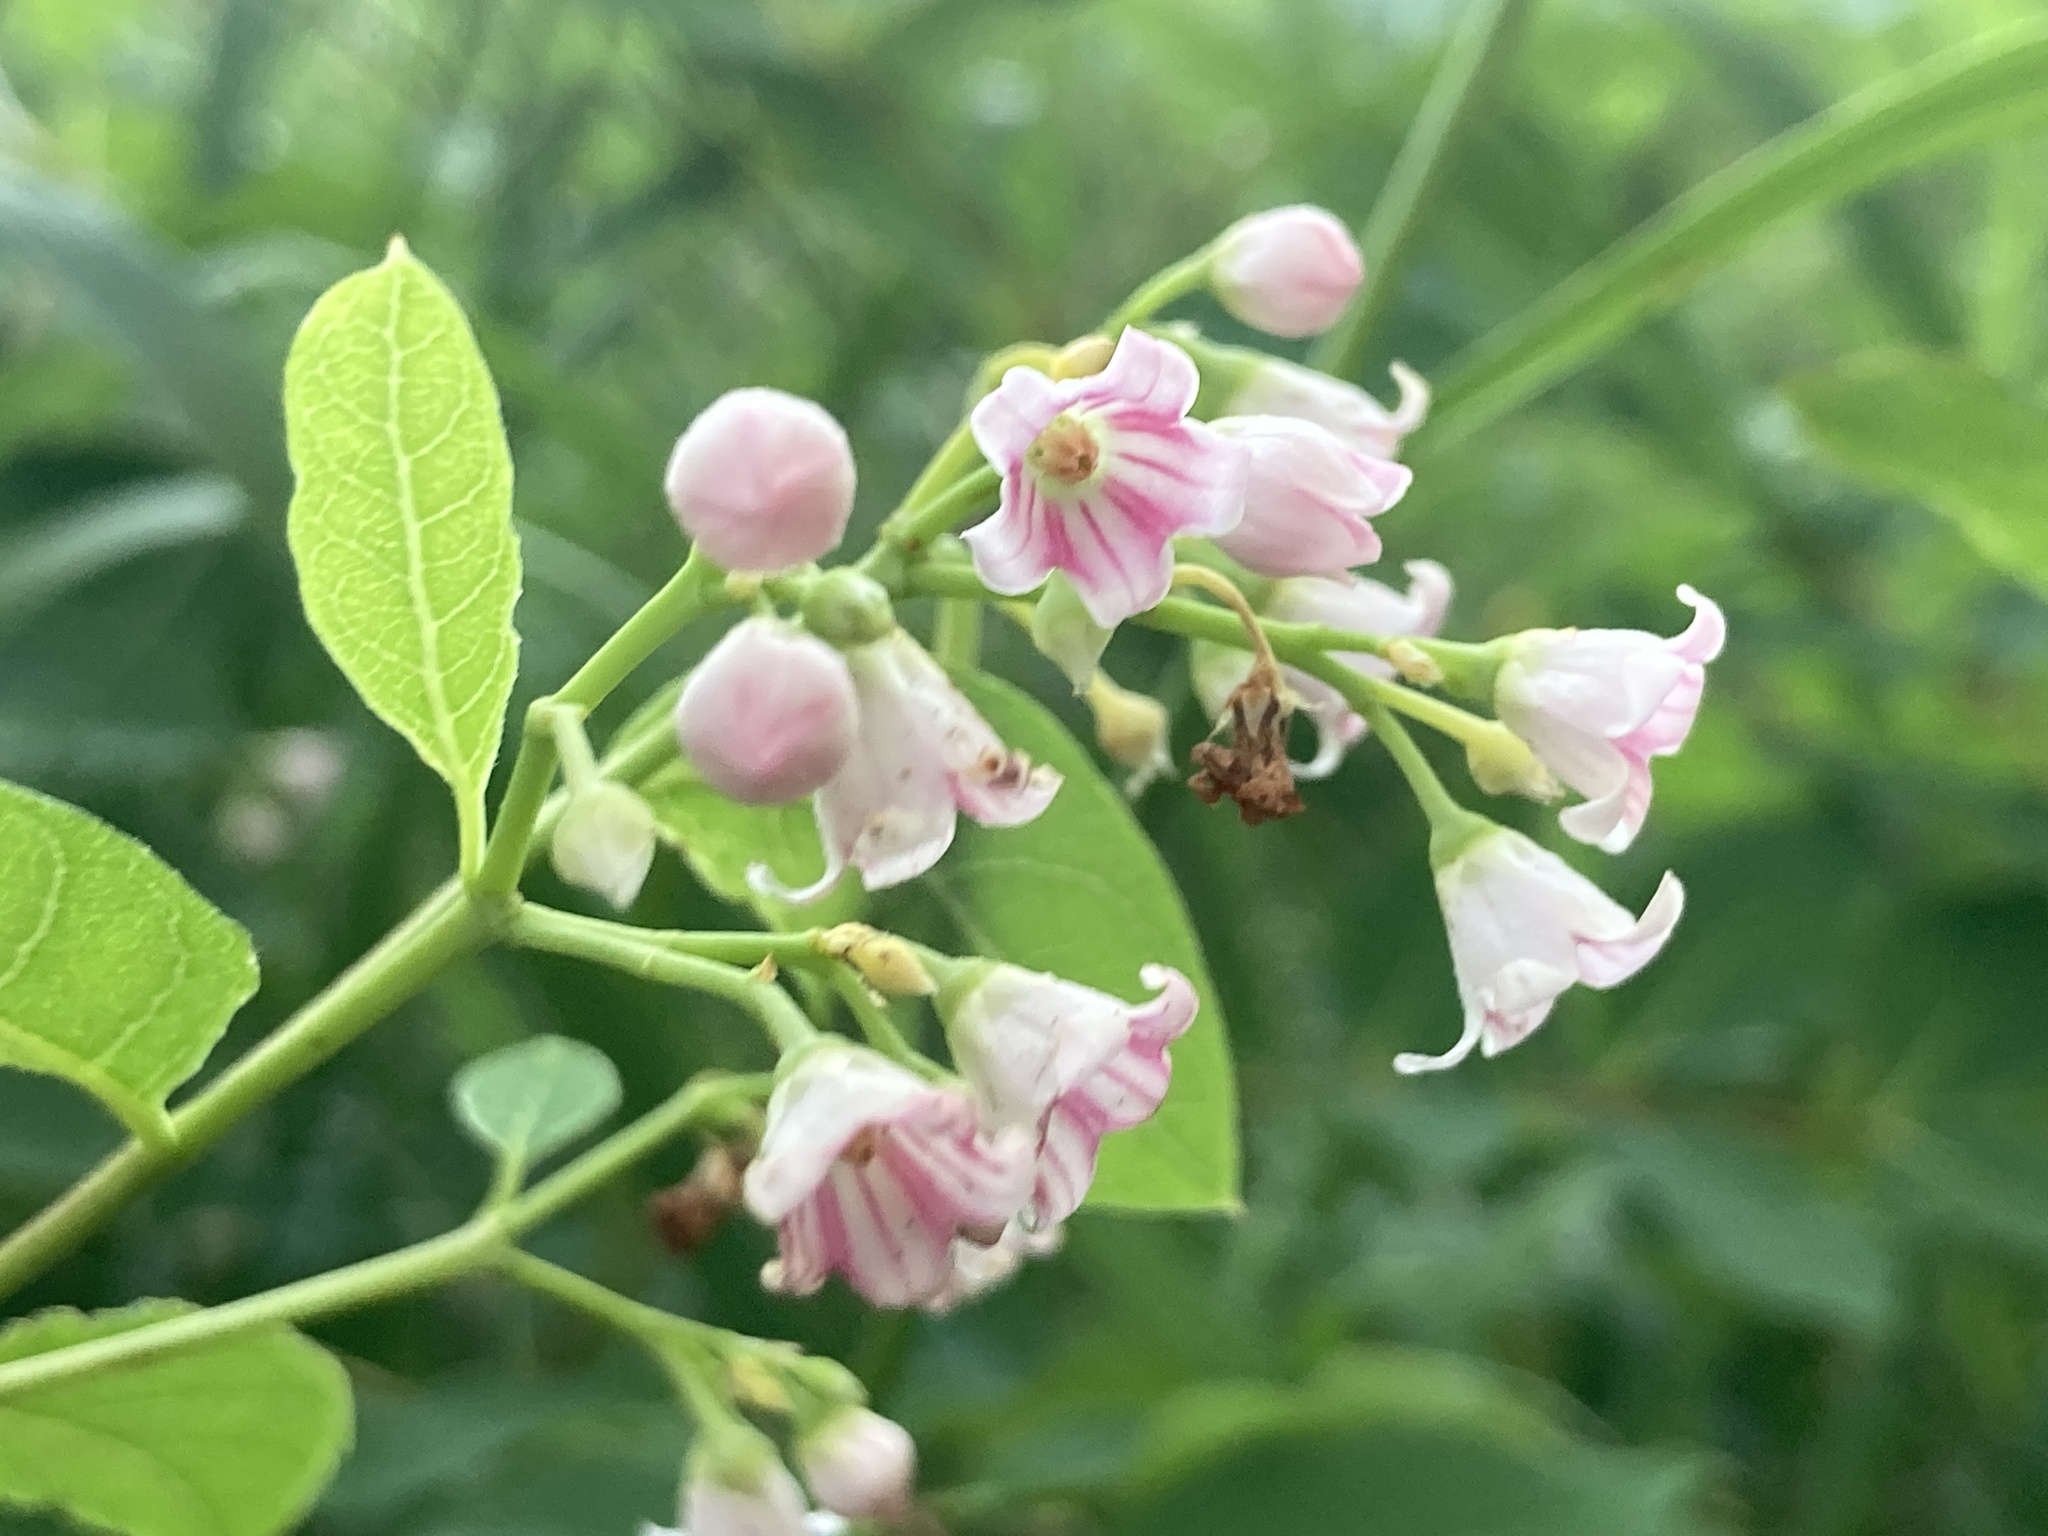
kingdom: Plantae
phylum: Tracheophyta
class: Magnoliopsida
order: Gentianales
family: Apocynaceae
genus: Apocynum
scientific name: Apocynum androsaemifolium
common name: Spreading dogbane
